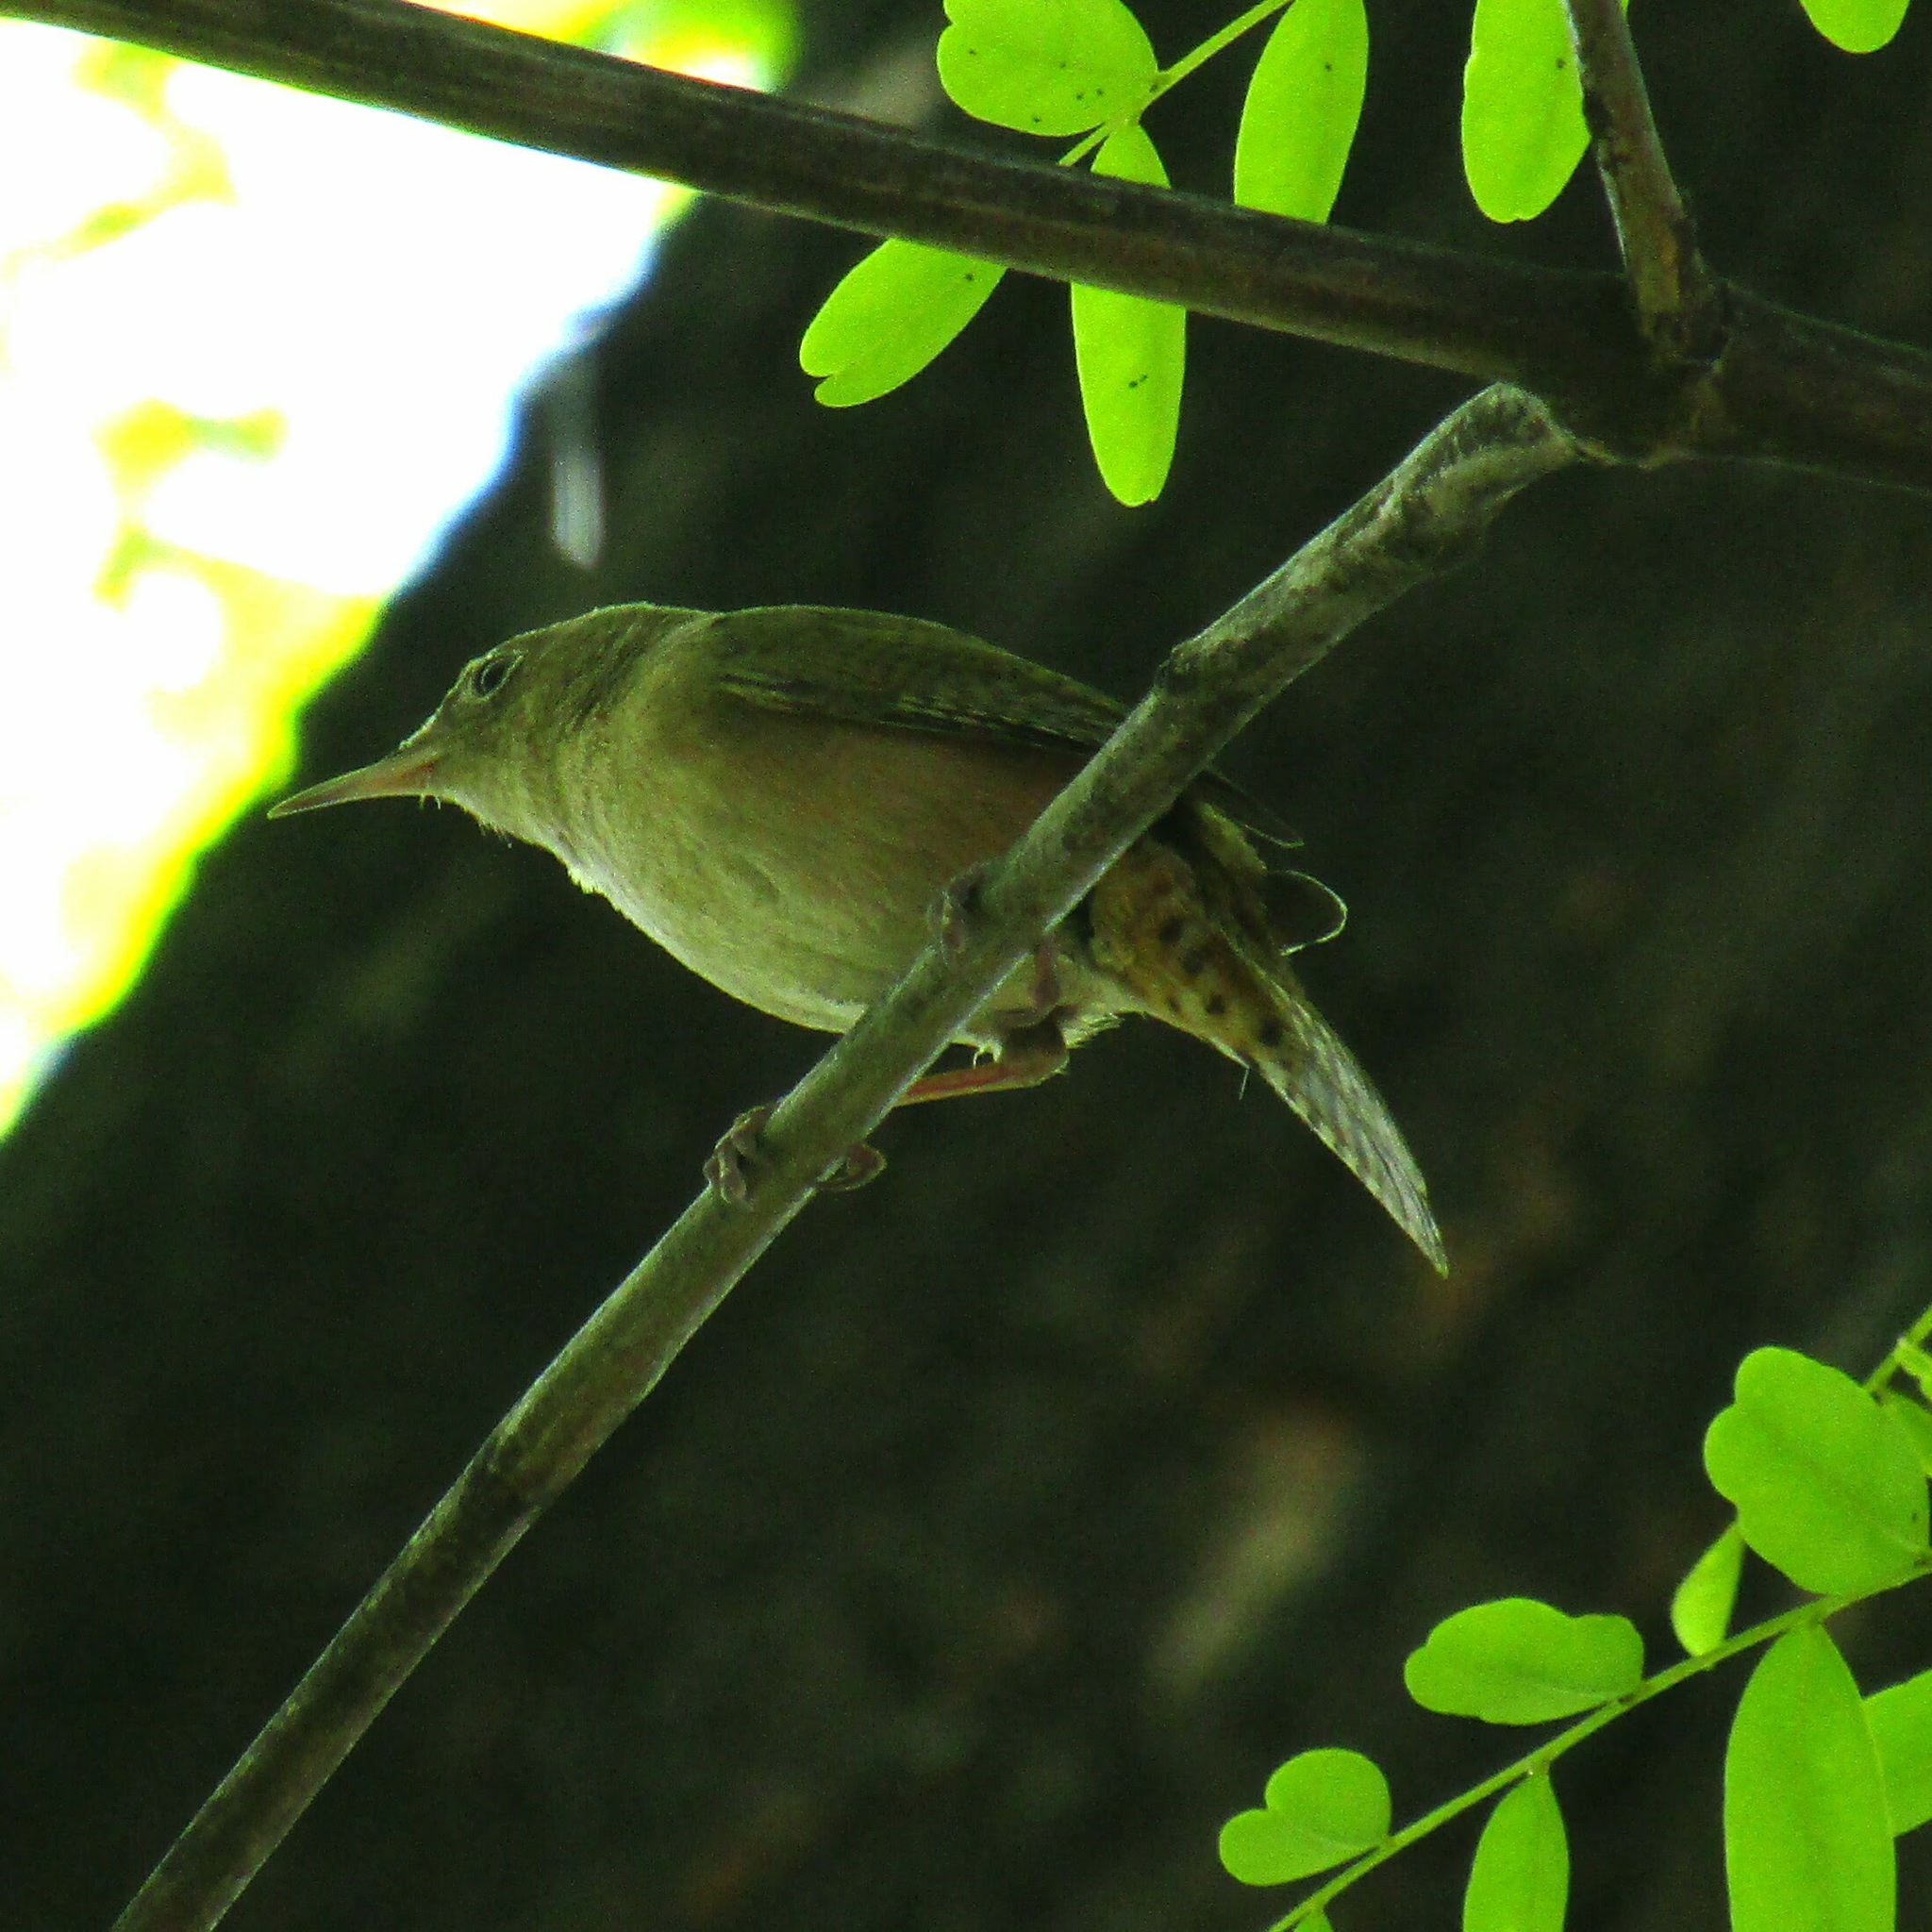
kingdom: Animalia
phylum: Chordata
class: Aves
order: Passeriformes
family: Troglodytidae
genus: Troglodytes
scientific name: Troglodytes aedon
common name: House wren
